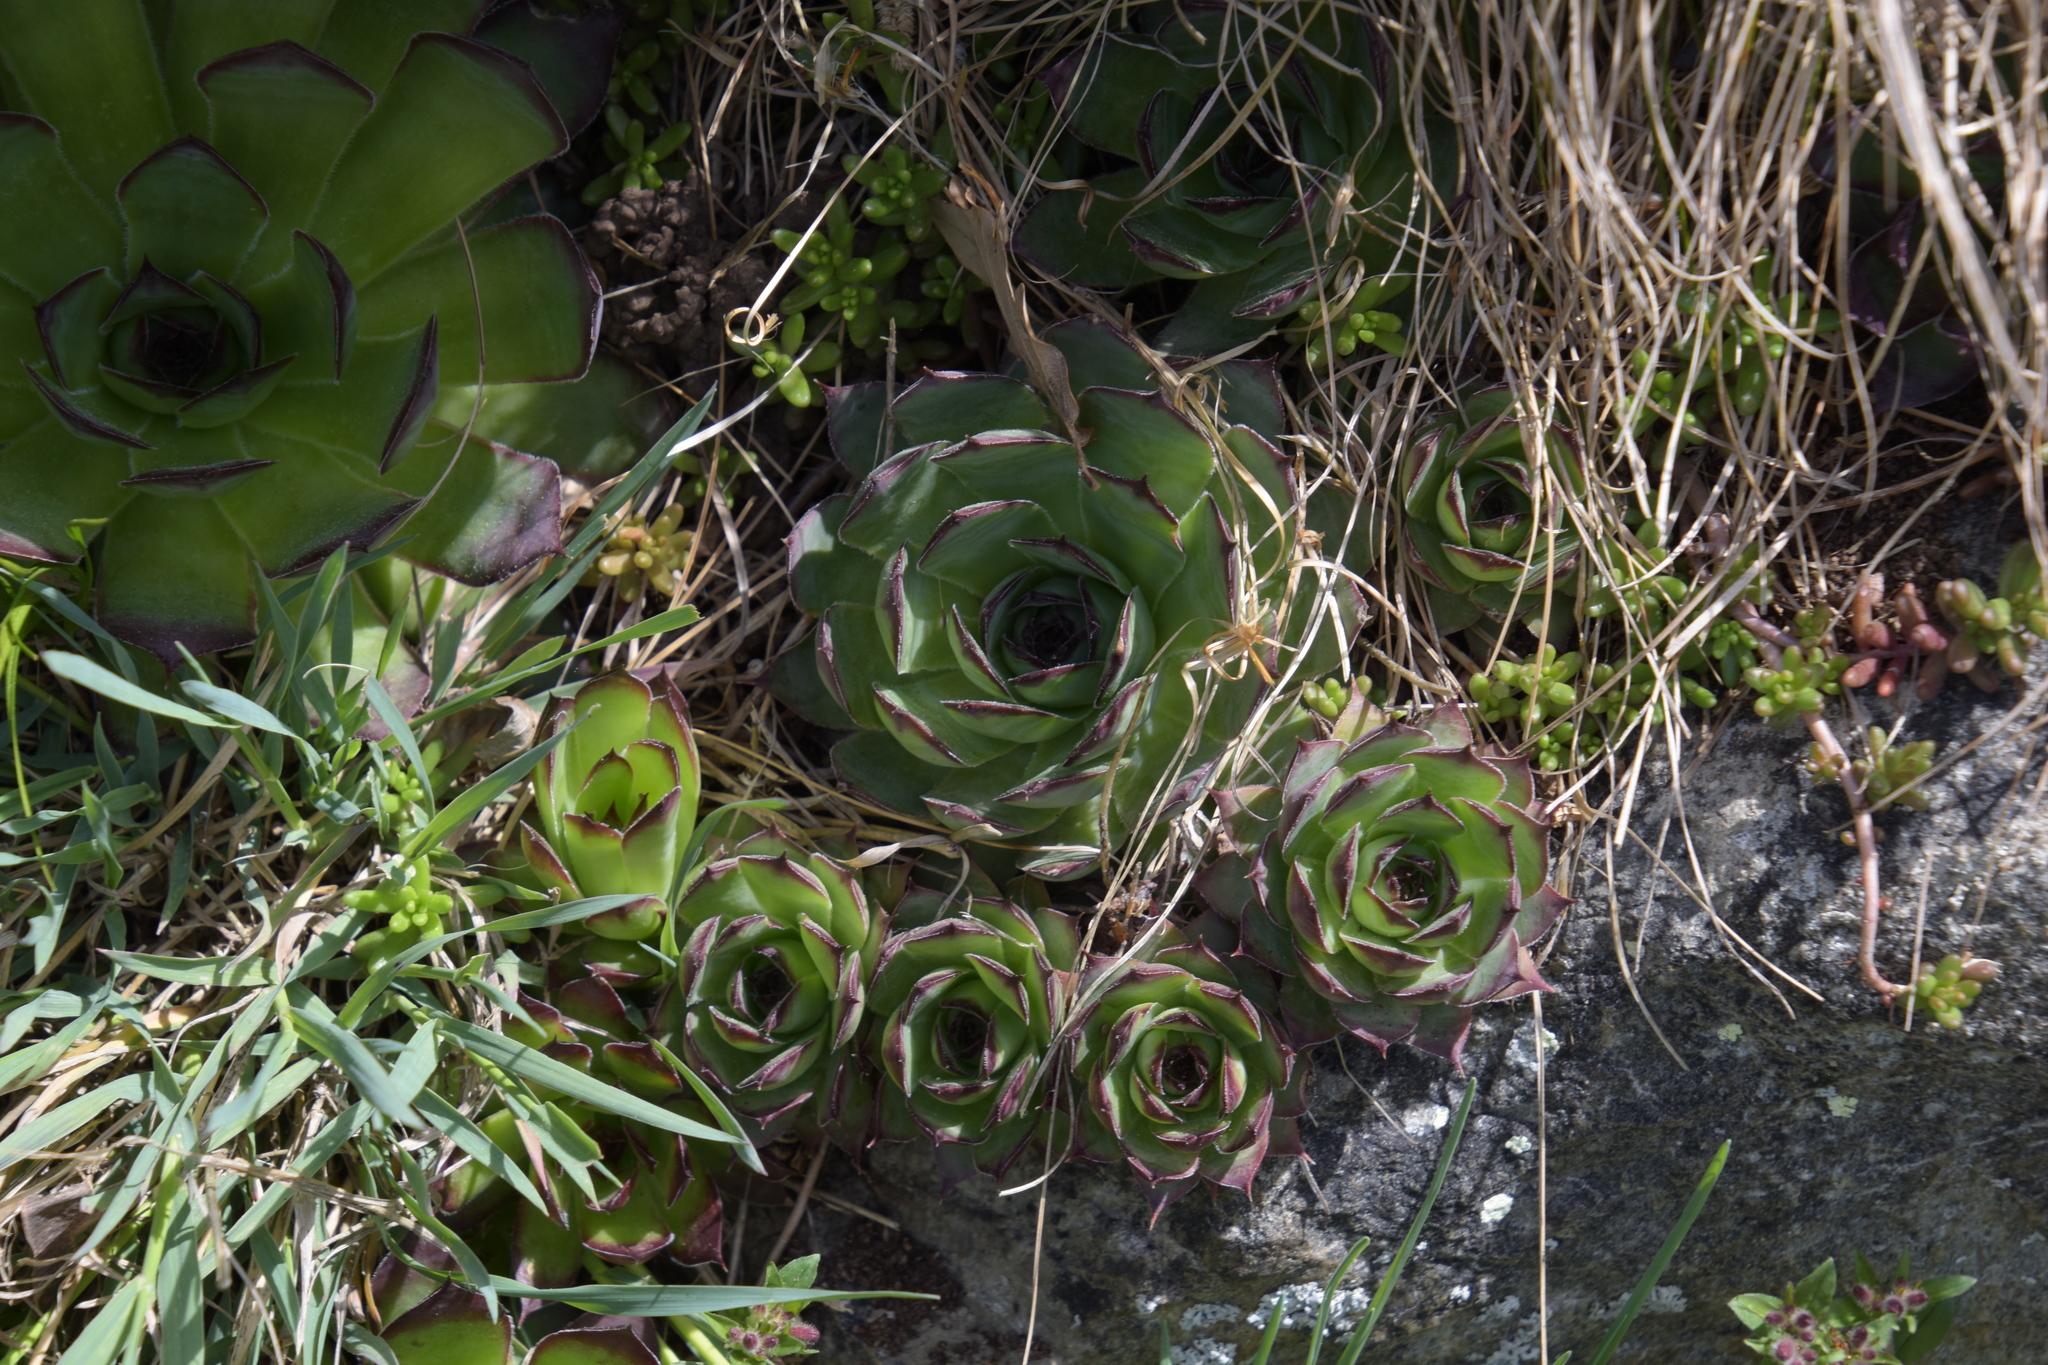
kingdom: Plantae
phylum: Tracheophyta
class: Magnoliopsida
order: Saxifragales
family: Crassulaceae
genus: Sempervivum
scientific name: Sempervivum tectorum
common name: House-leek
